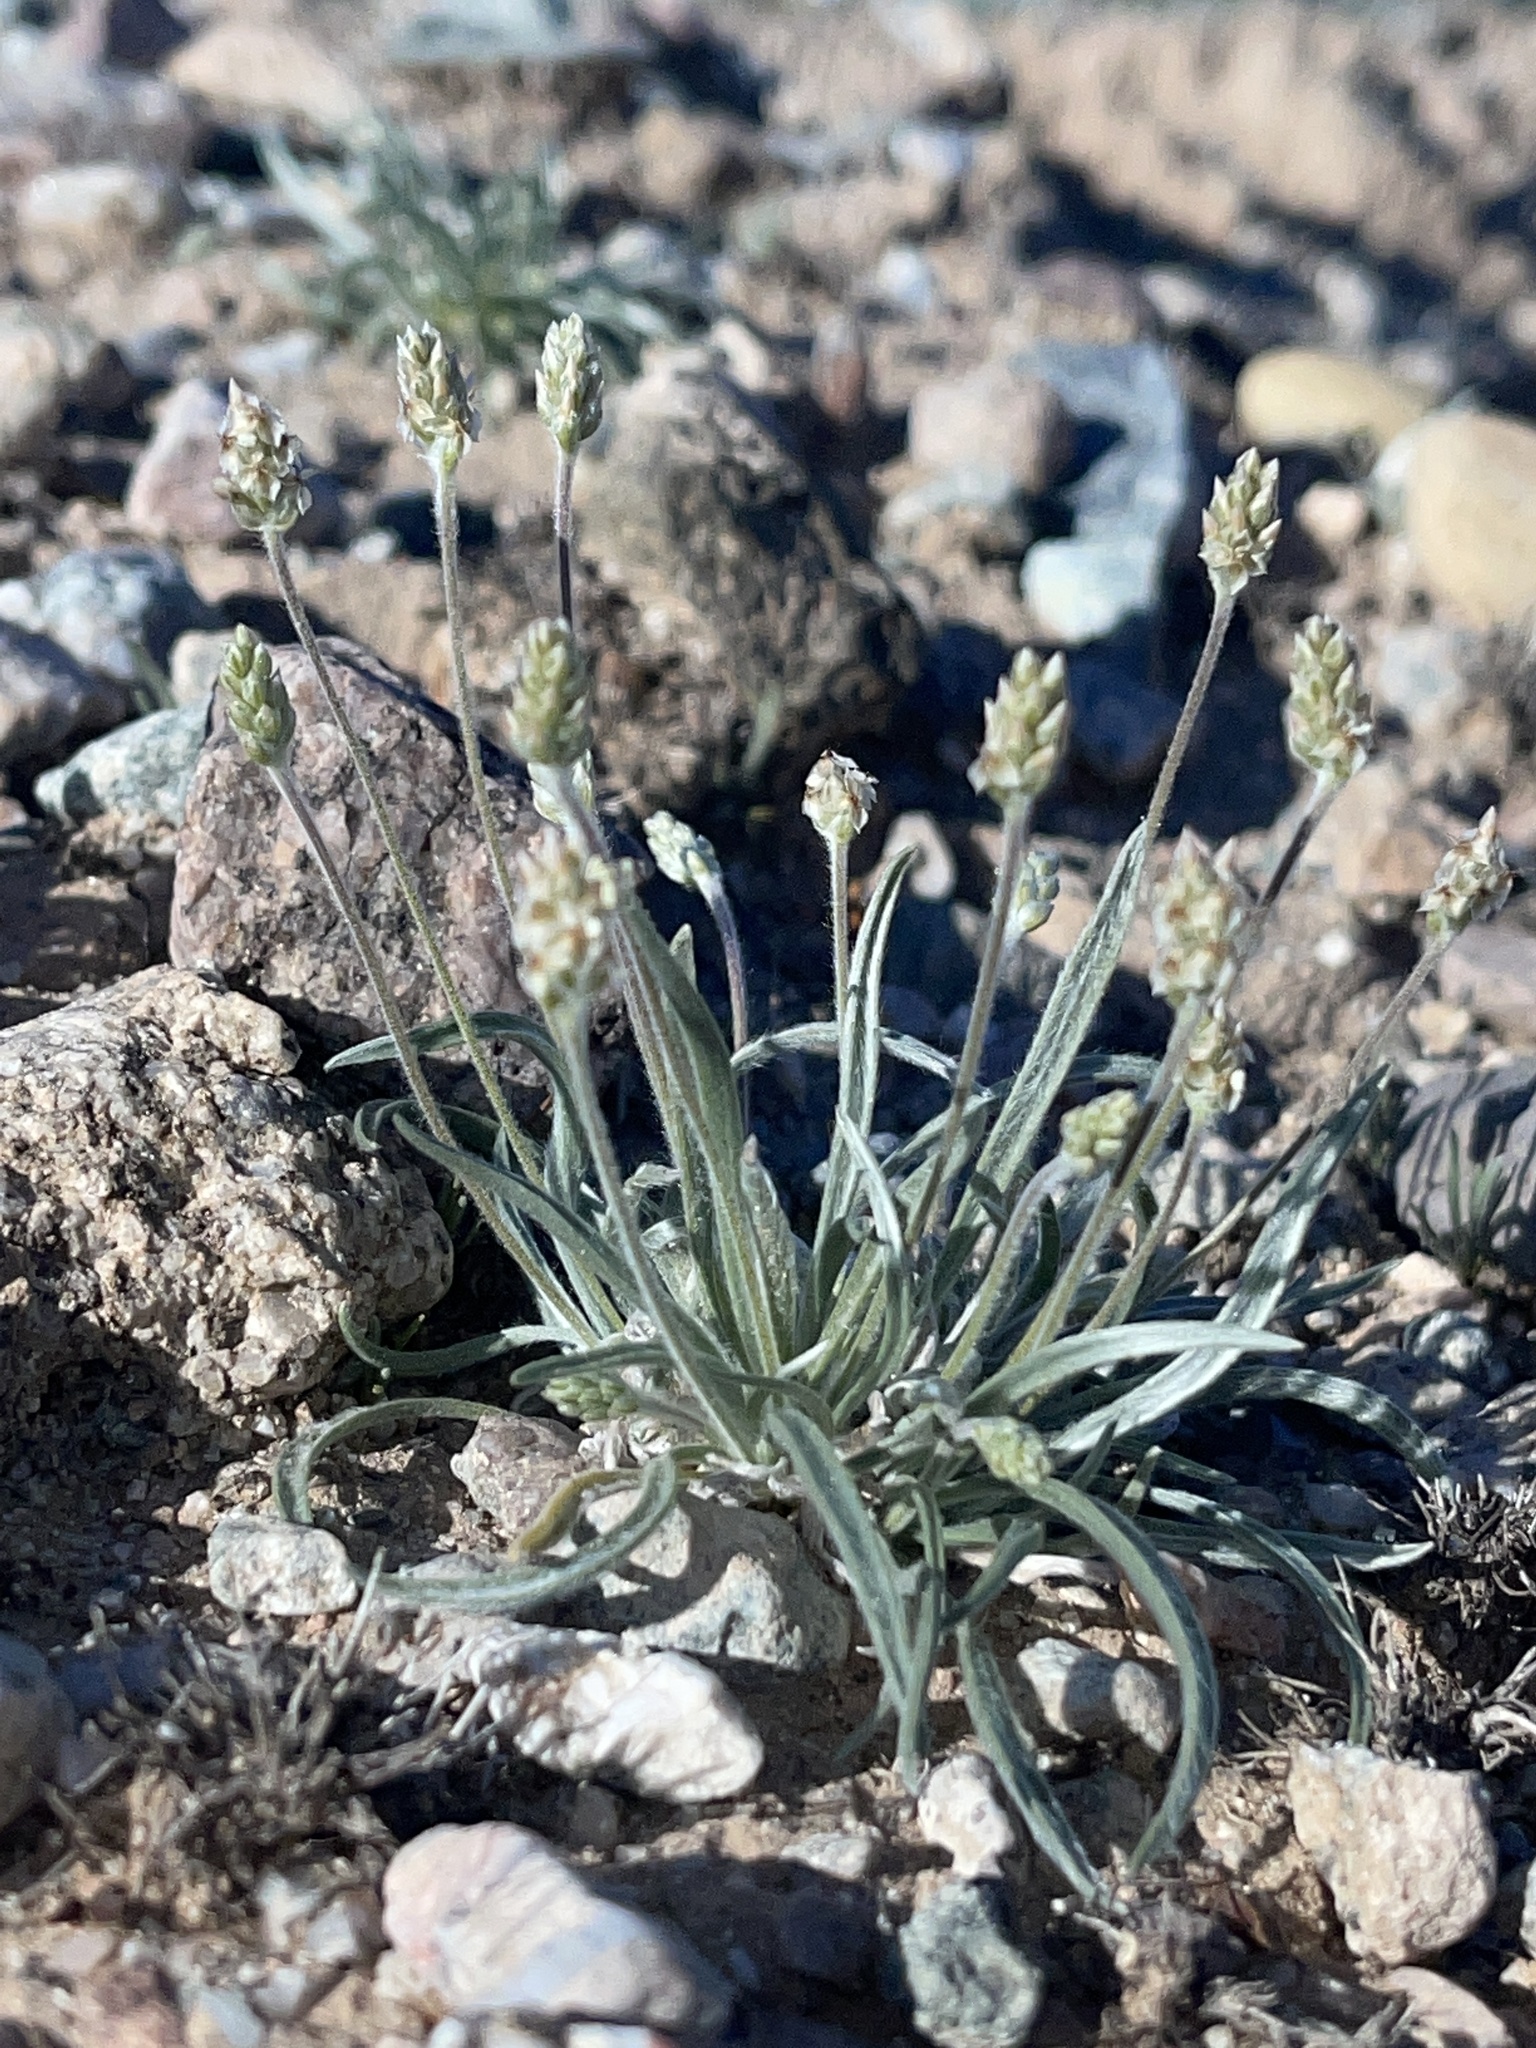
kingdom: Plantae
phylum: Tracheophyta
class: Magnoliopsida
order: Lamiales
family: Plantaginaceae
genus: Plantago
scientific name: Plantago ovata
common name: Blond plantain
